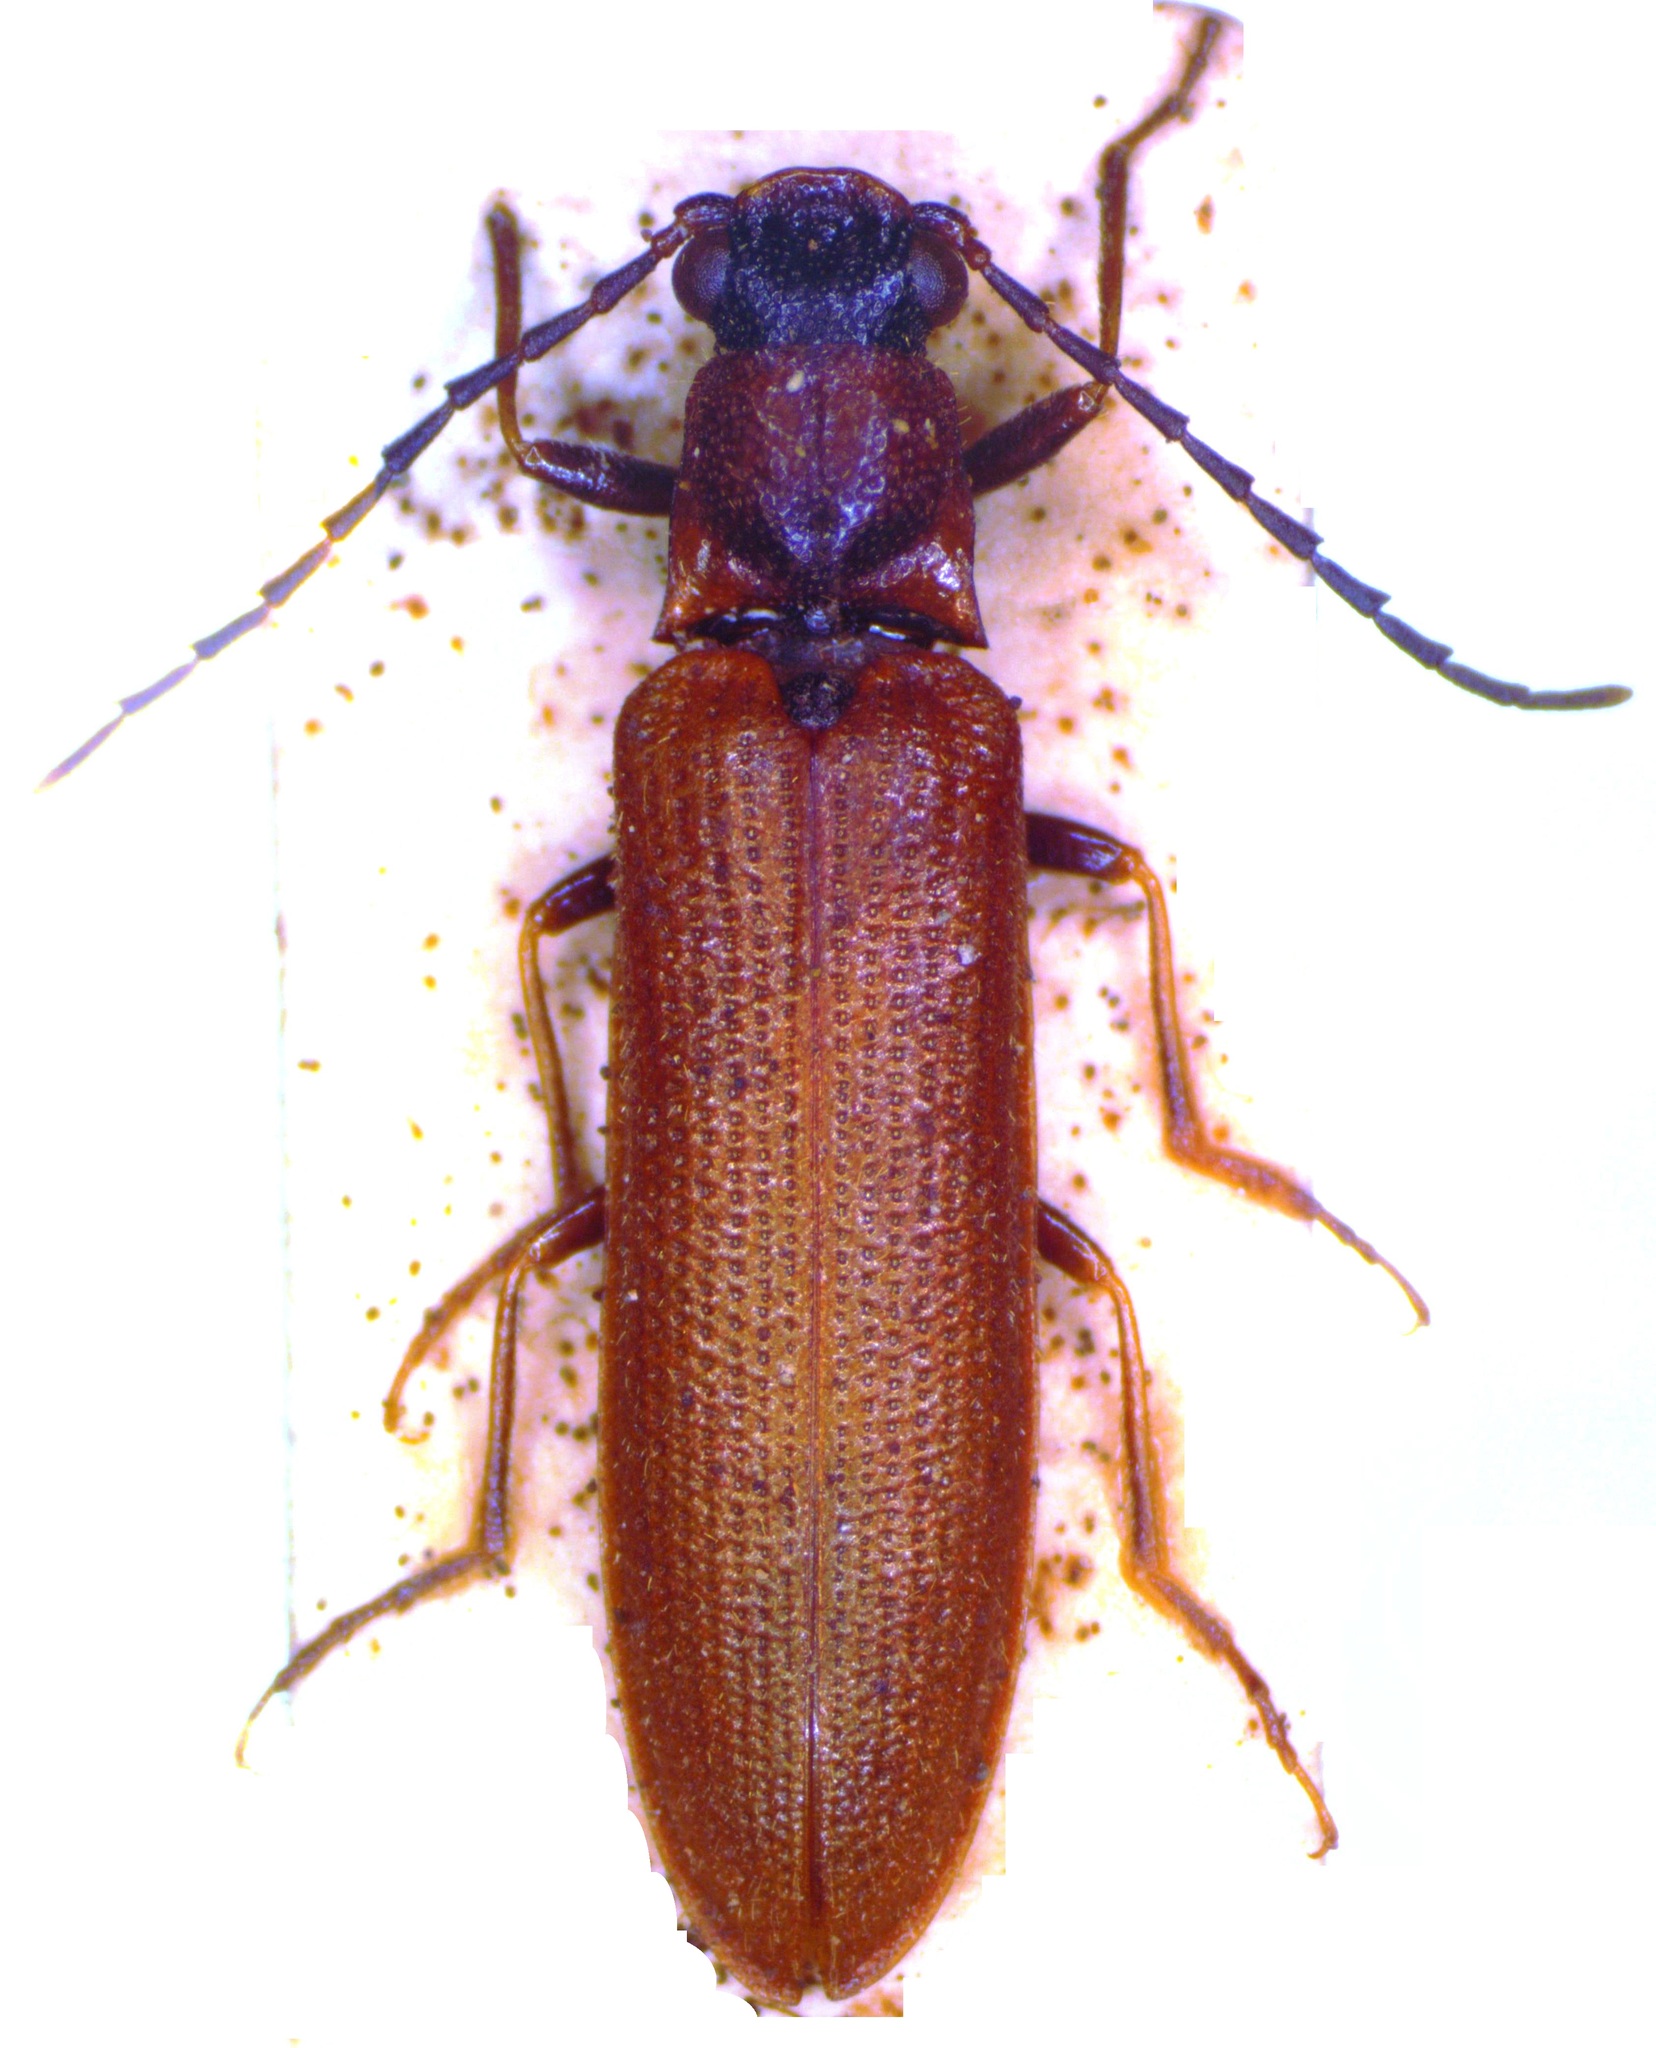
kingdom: Animalia
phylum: Arthropoda
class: Insecta
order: Coleoptera
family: Elateridae
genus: Denticollis
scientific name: Denticollis linearis
